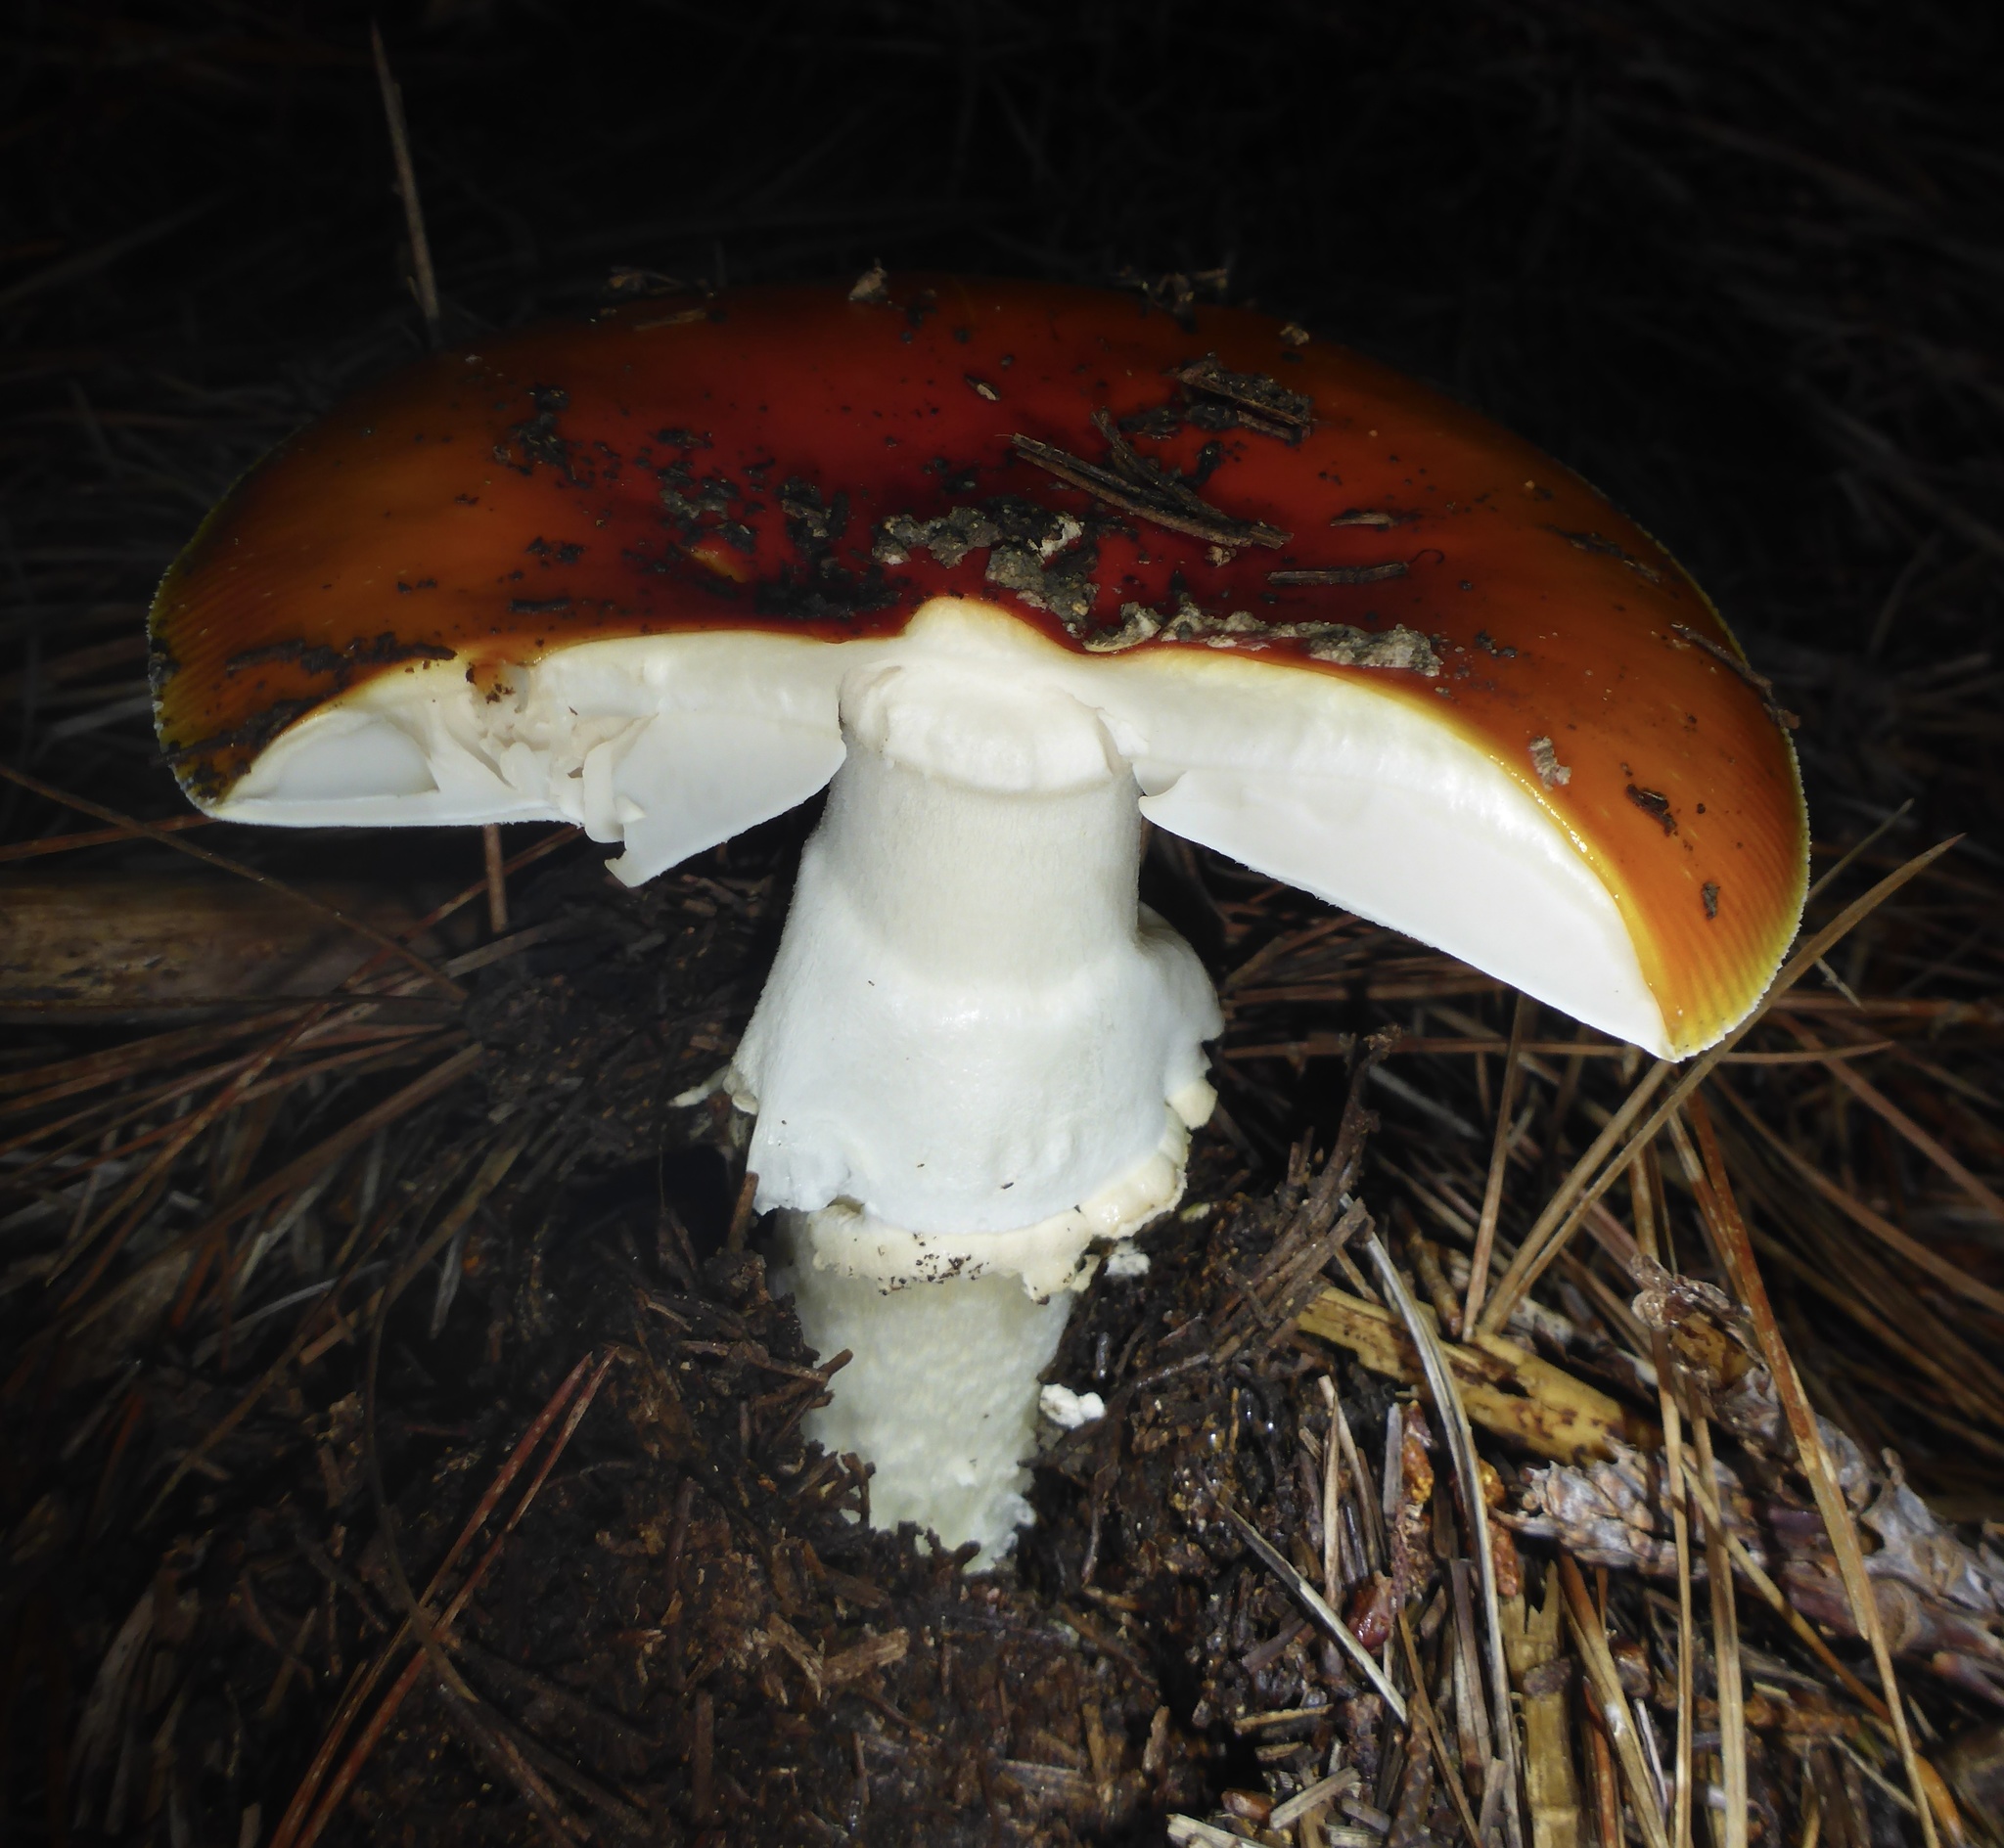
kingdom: Fungi
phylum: Basidiomycota
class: Agaricomycetes
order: Agaricales
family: Amanitaceae
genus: Amanita
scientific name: Amanita muscaria
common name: Fly agaric
